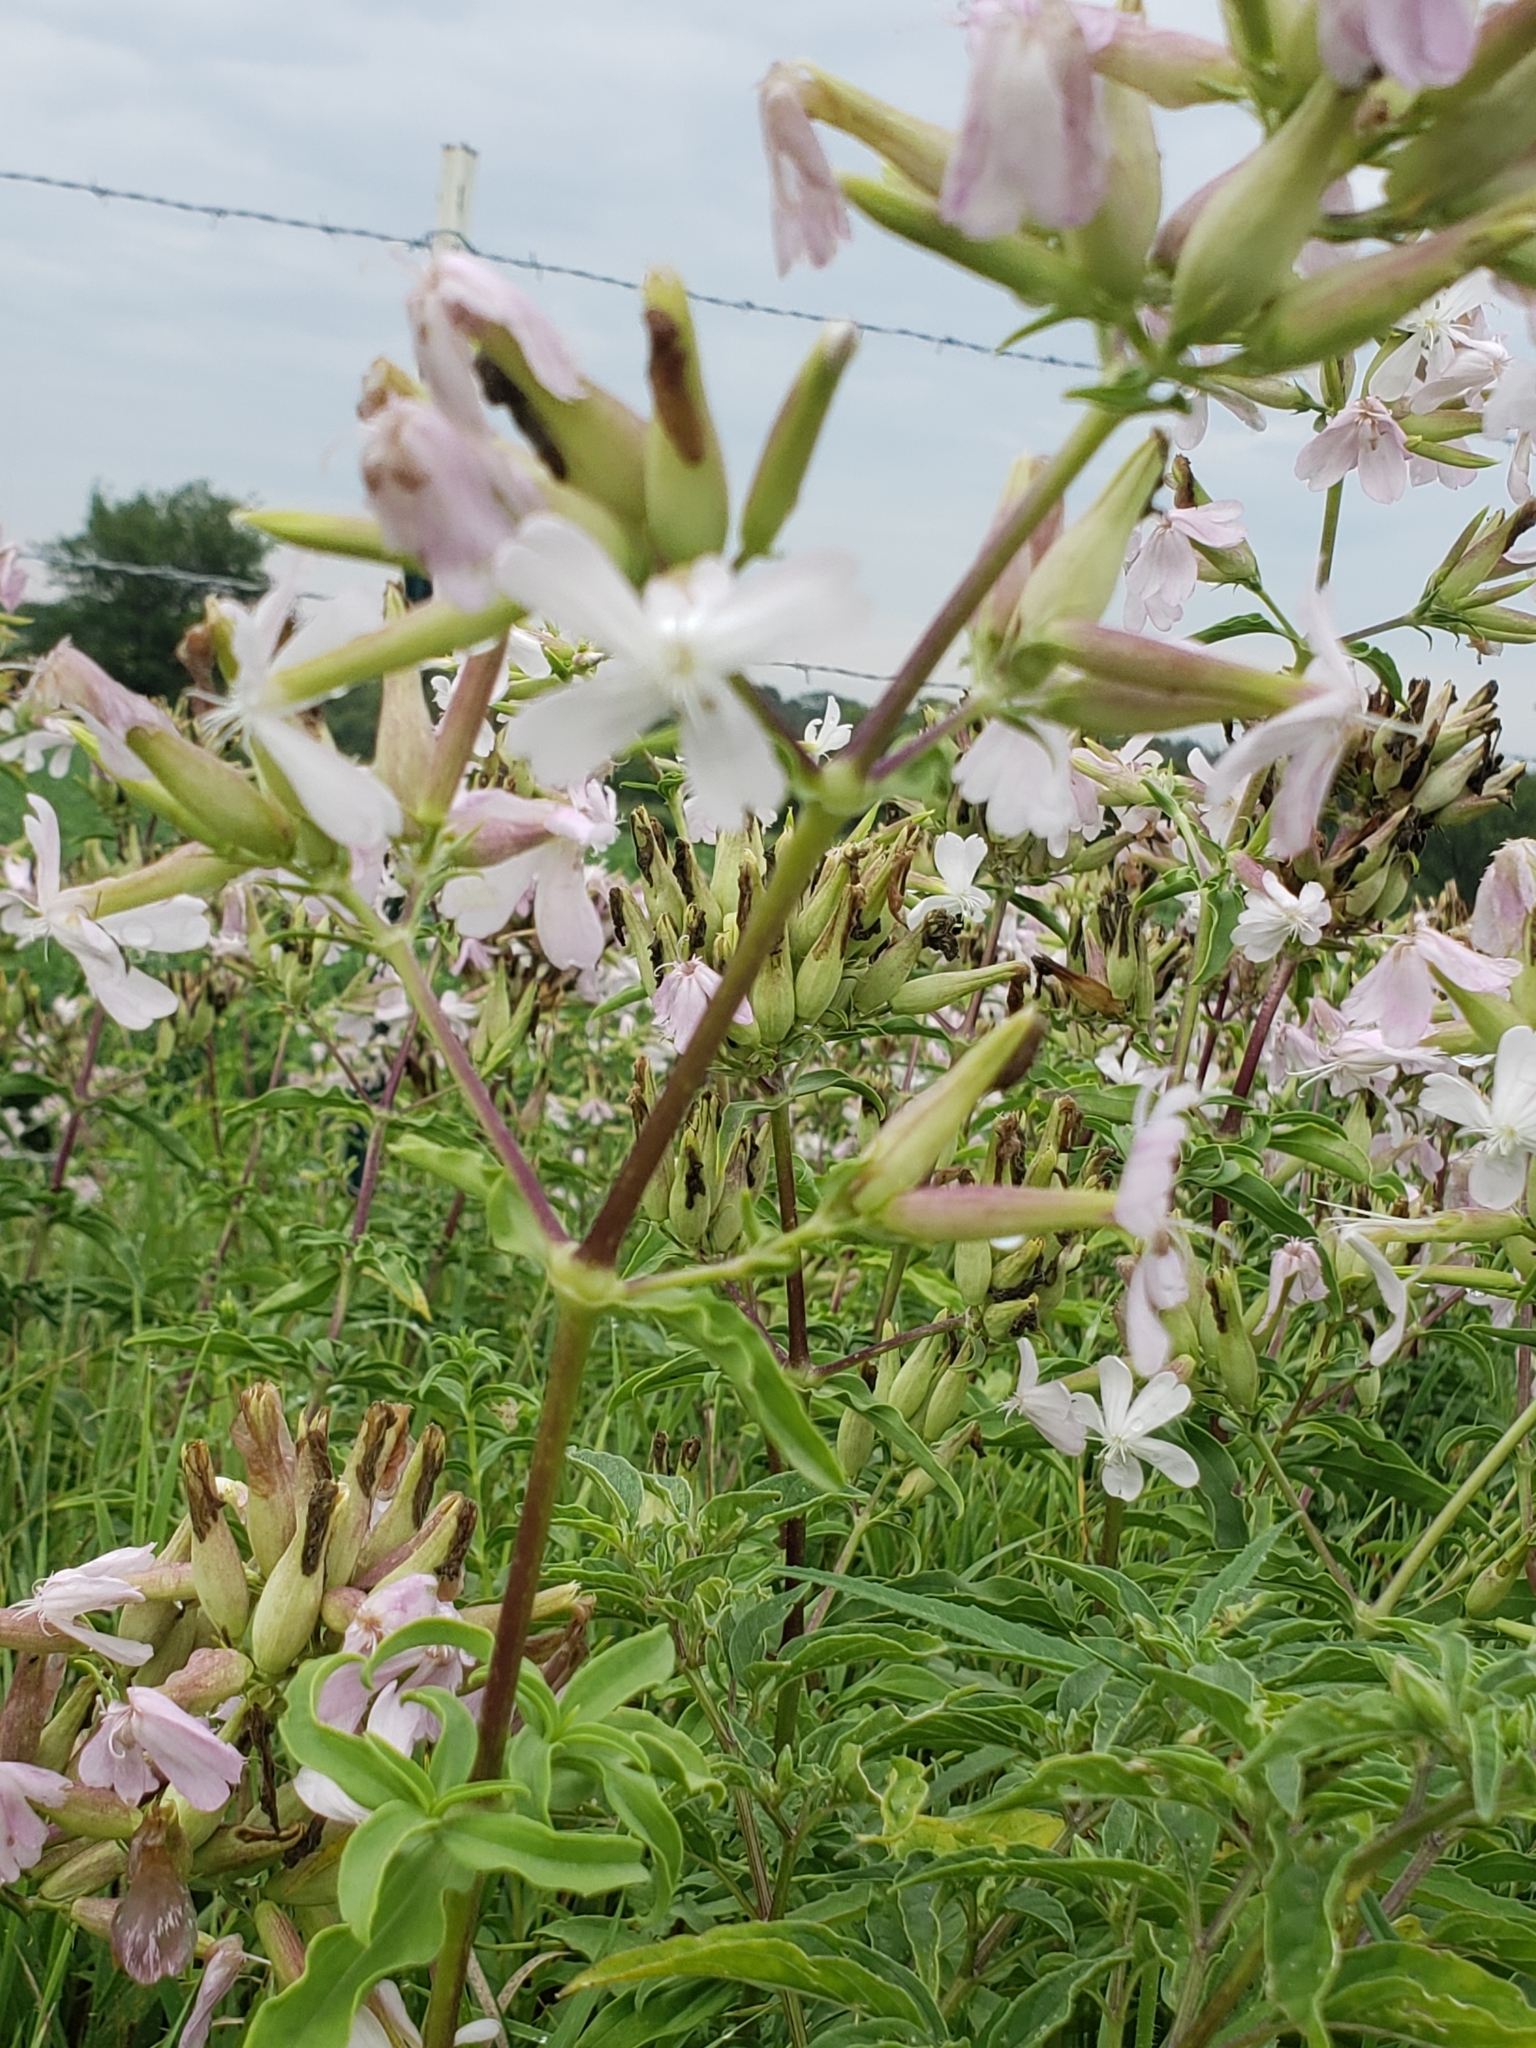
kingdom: Plantae
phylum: Tracheophyta
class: Magnoliopsida
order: Caryophyllales
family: Caryophyllaceae
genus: Saponaria
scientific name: Saponaria officinalis
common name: Soapwort
